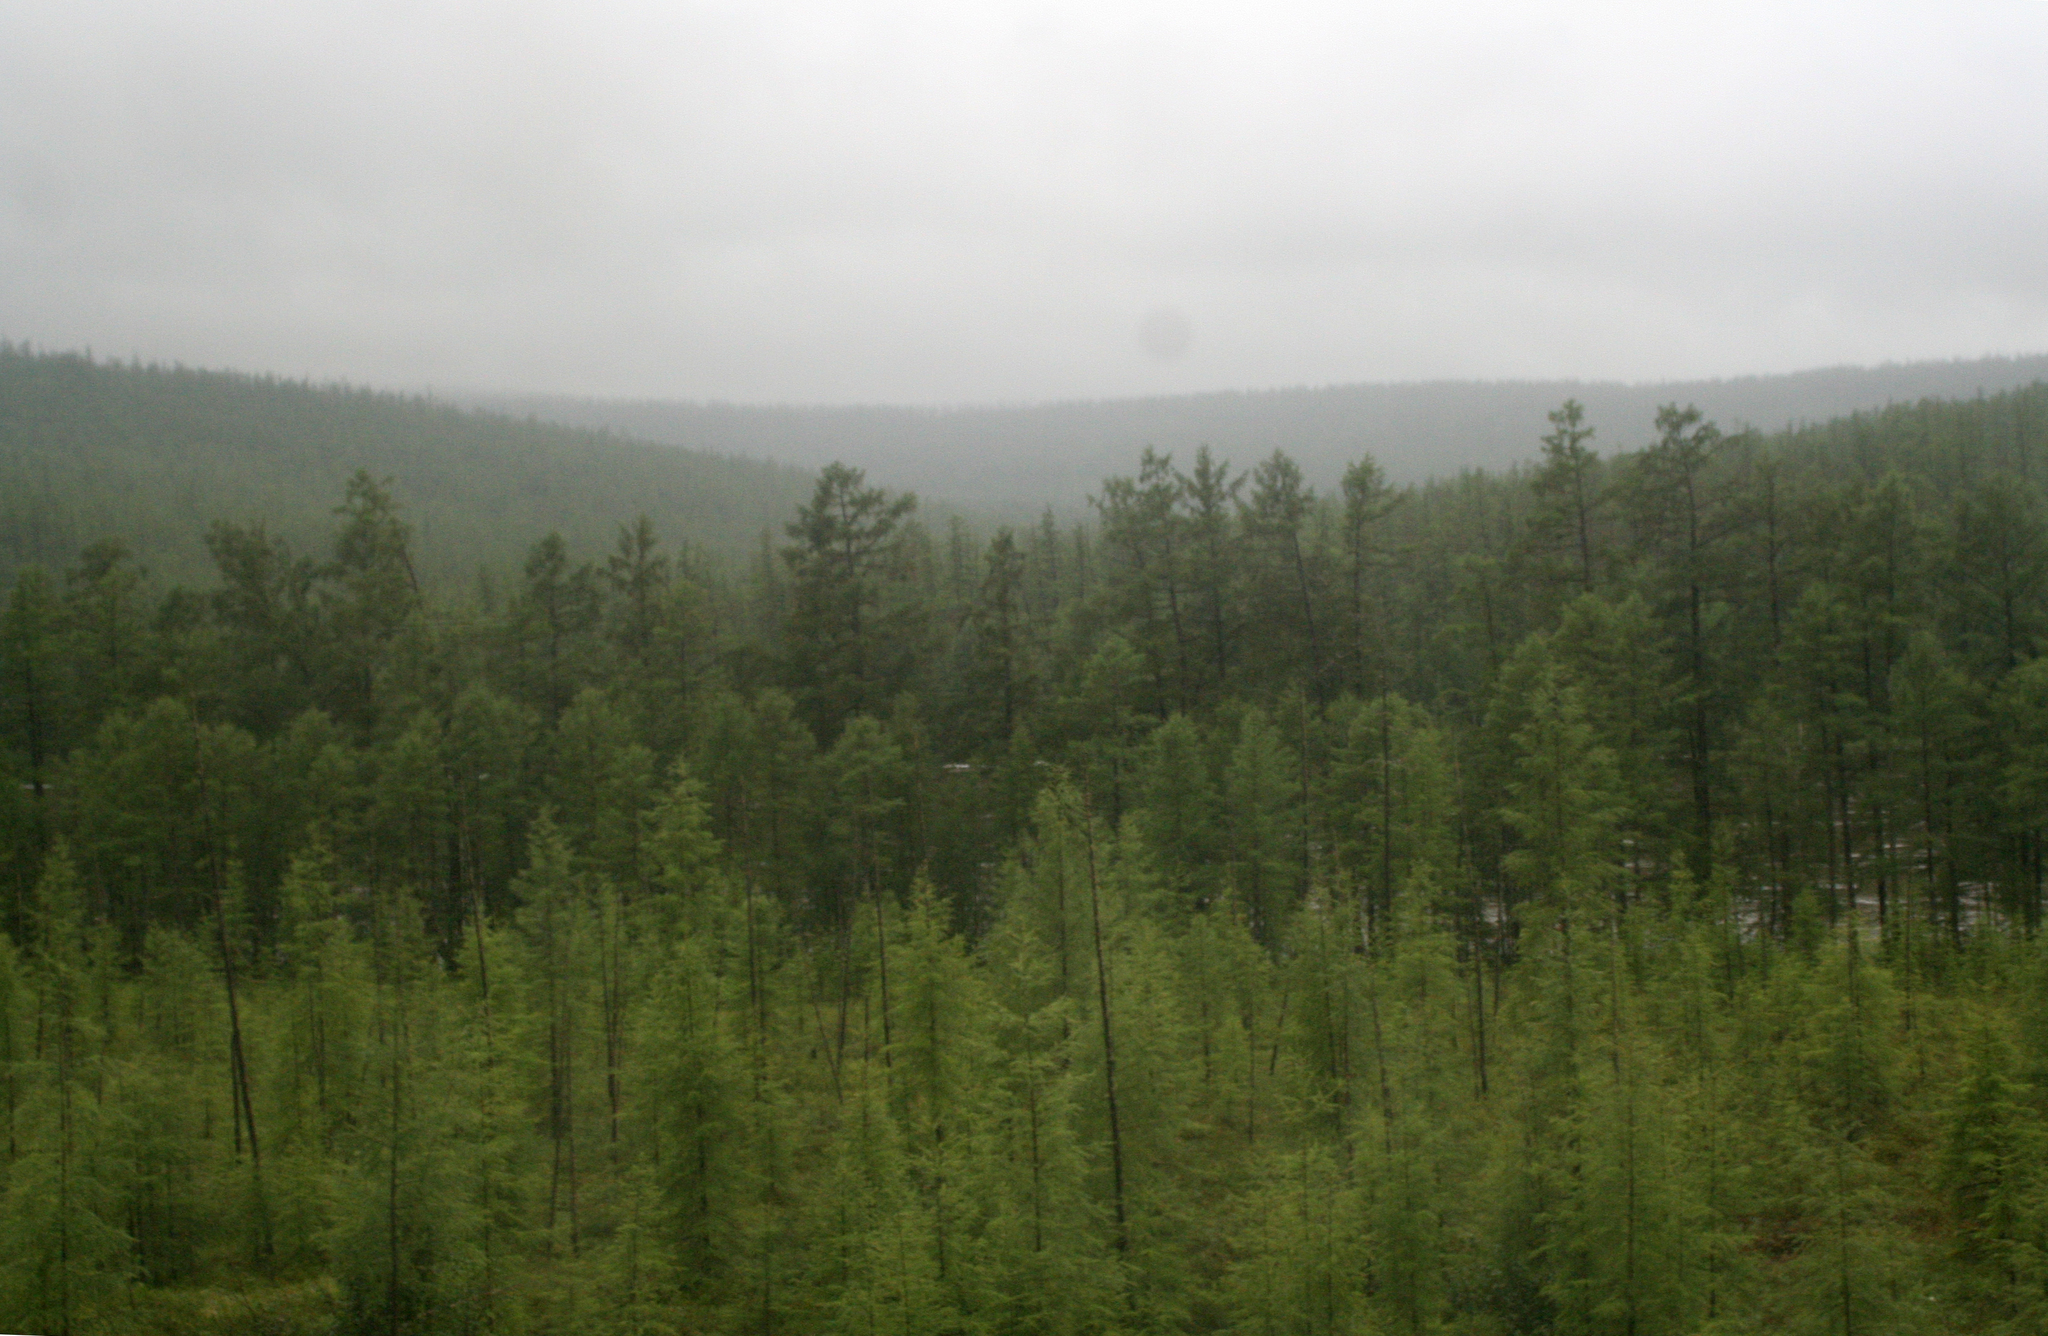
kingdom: Plantae
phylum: Tracheophyta
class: Pinopsida
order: Pinales
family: Pinaceae
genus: Larix
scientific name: Larix gmelinii
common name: Dahurian larch
